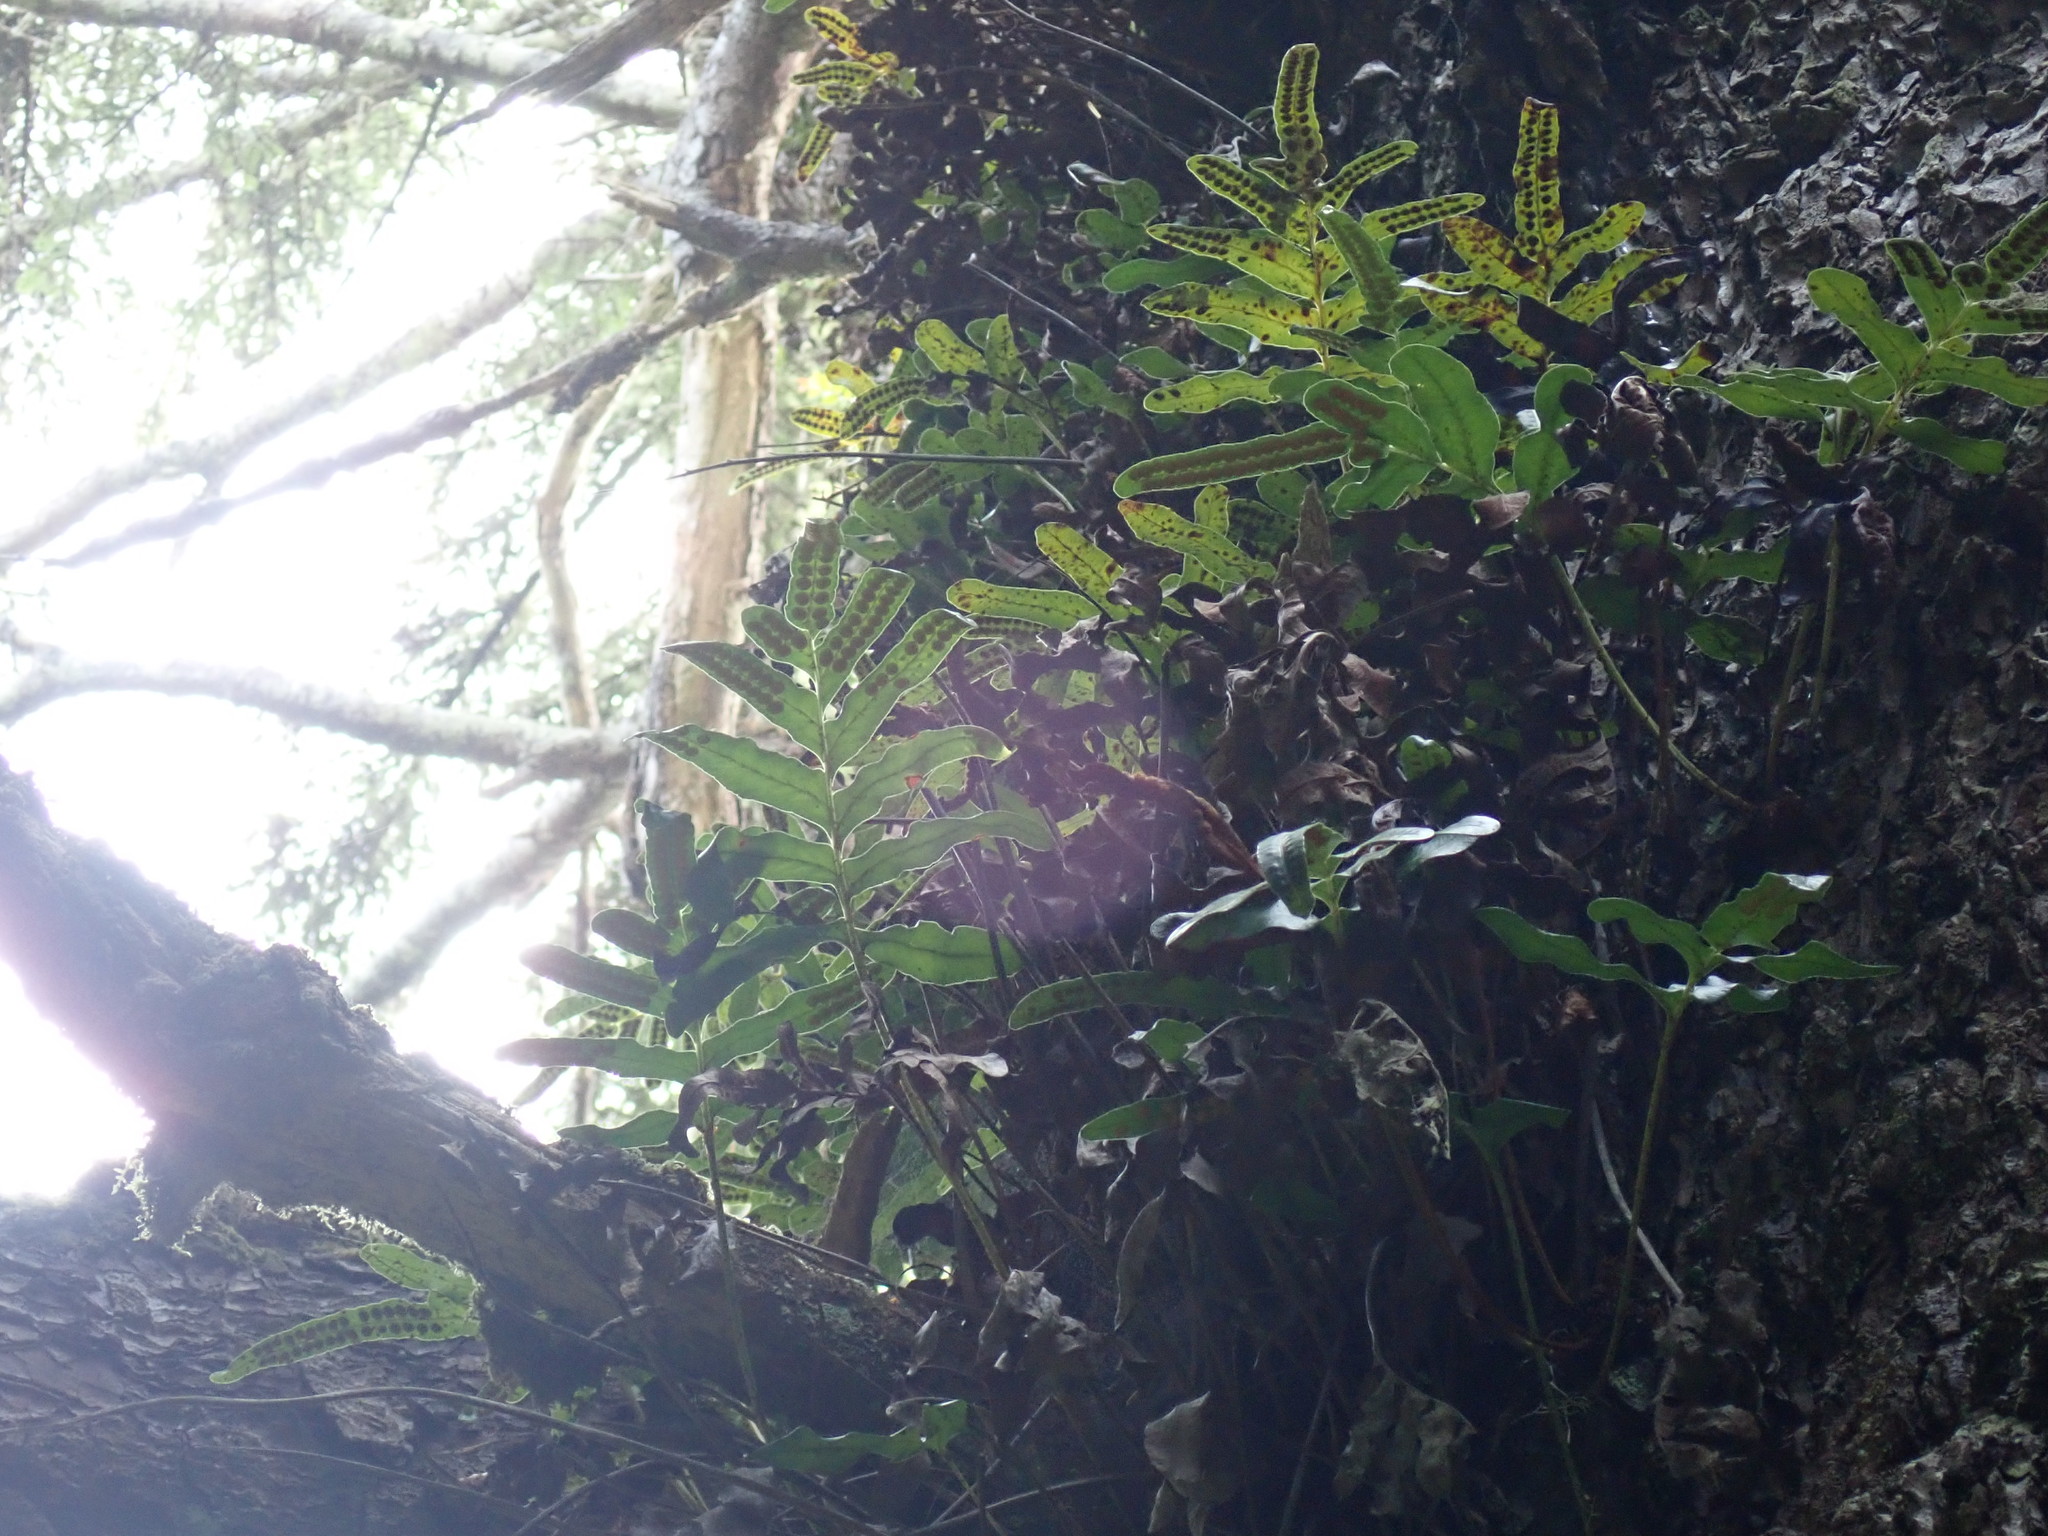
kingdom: Plantae
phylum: Tracheophyta
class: Polypodiopsida
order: Polypodiales
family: Polypodiaceae
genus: Polypodium
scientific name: Polypodium scouleri
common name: Scouler's polypody
